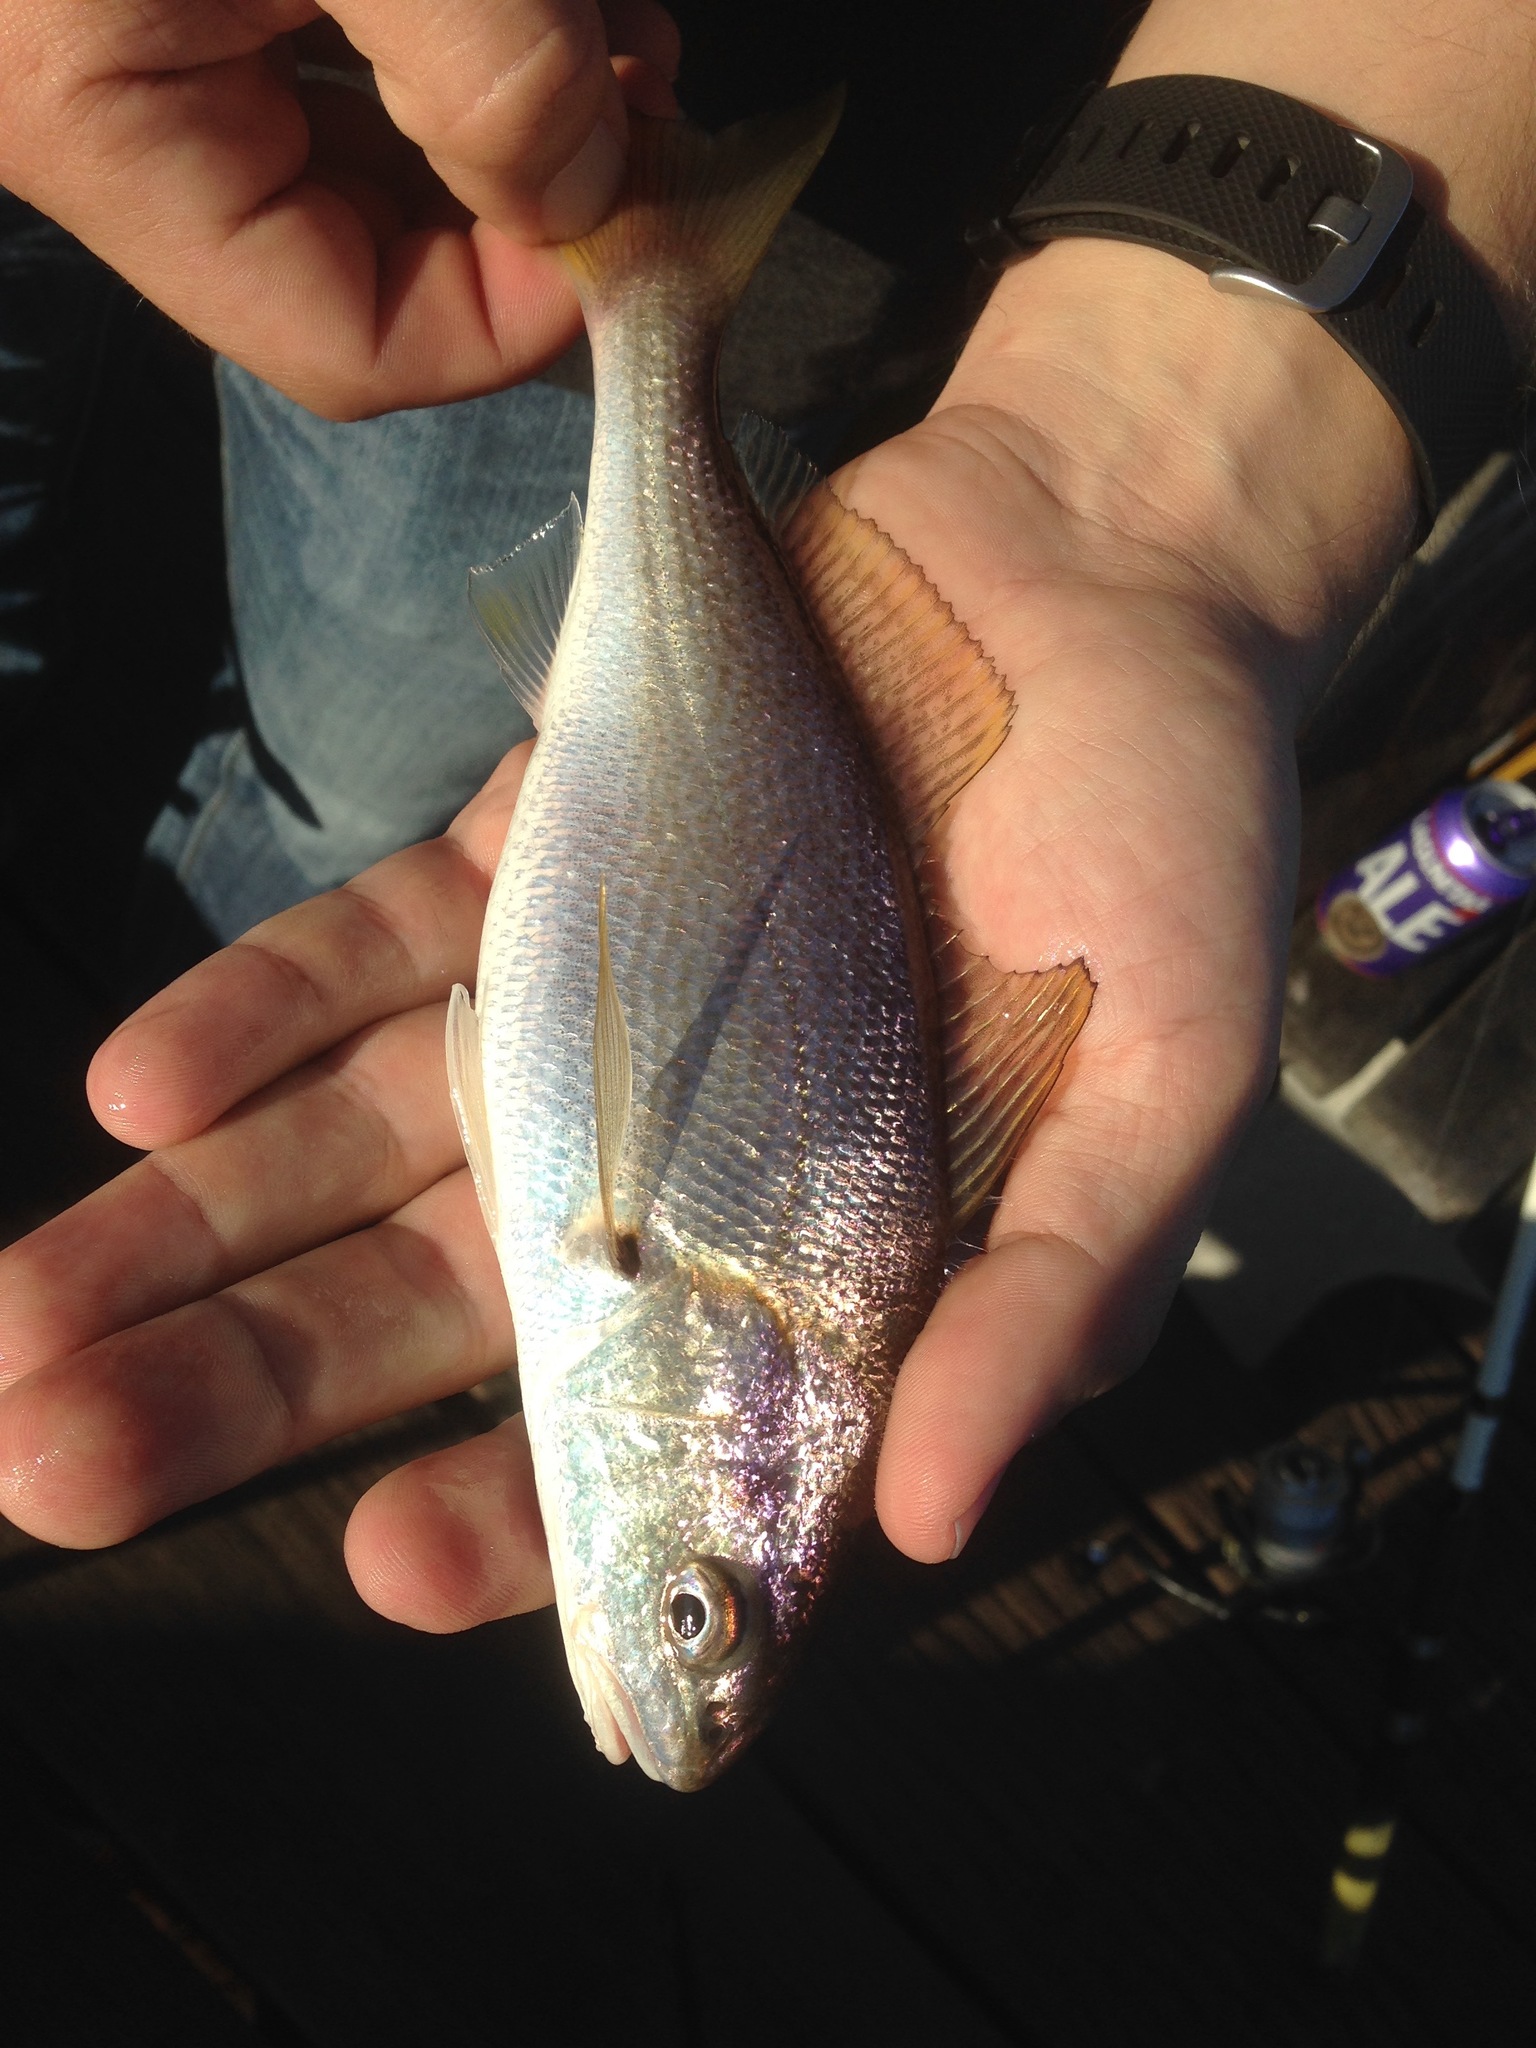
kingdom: Animalia
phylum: Chordata
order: Perciformes
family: Sciaenidae
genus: Genyonemus
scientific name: Genyonemus lineatus
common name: White croaker
